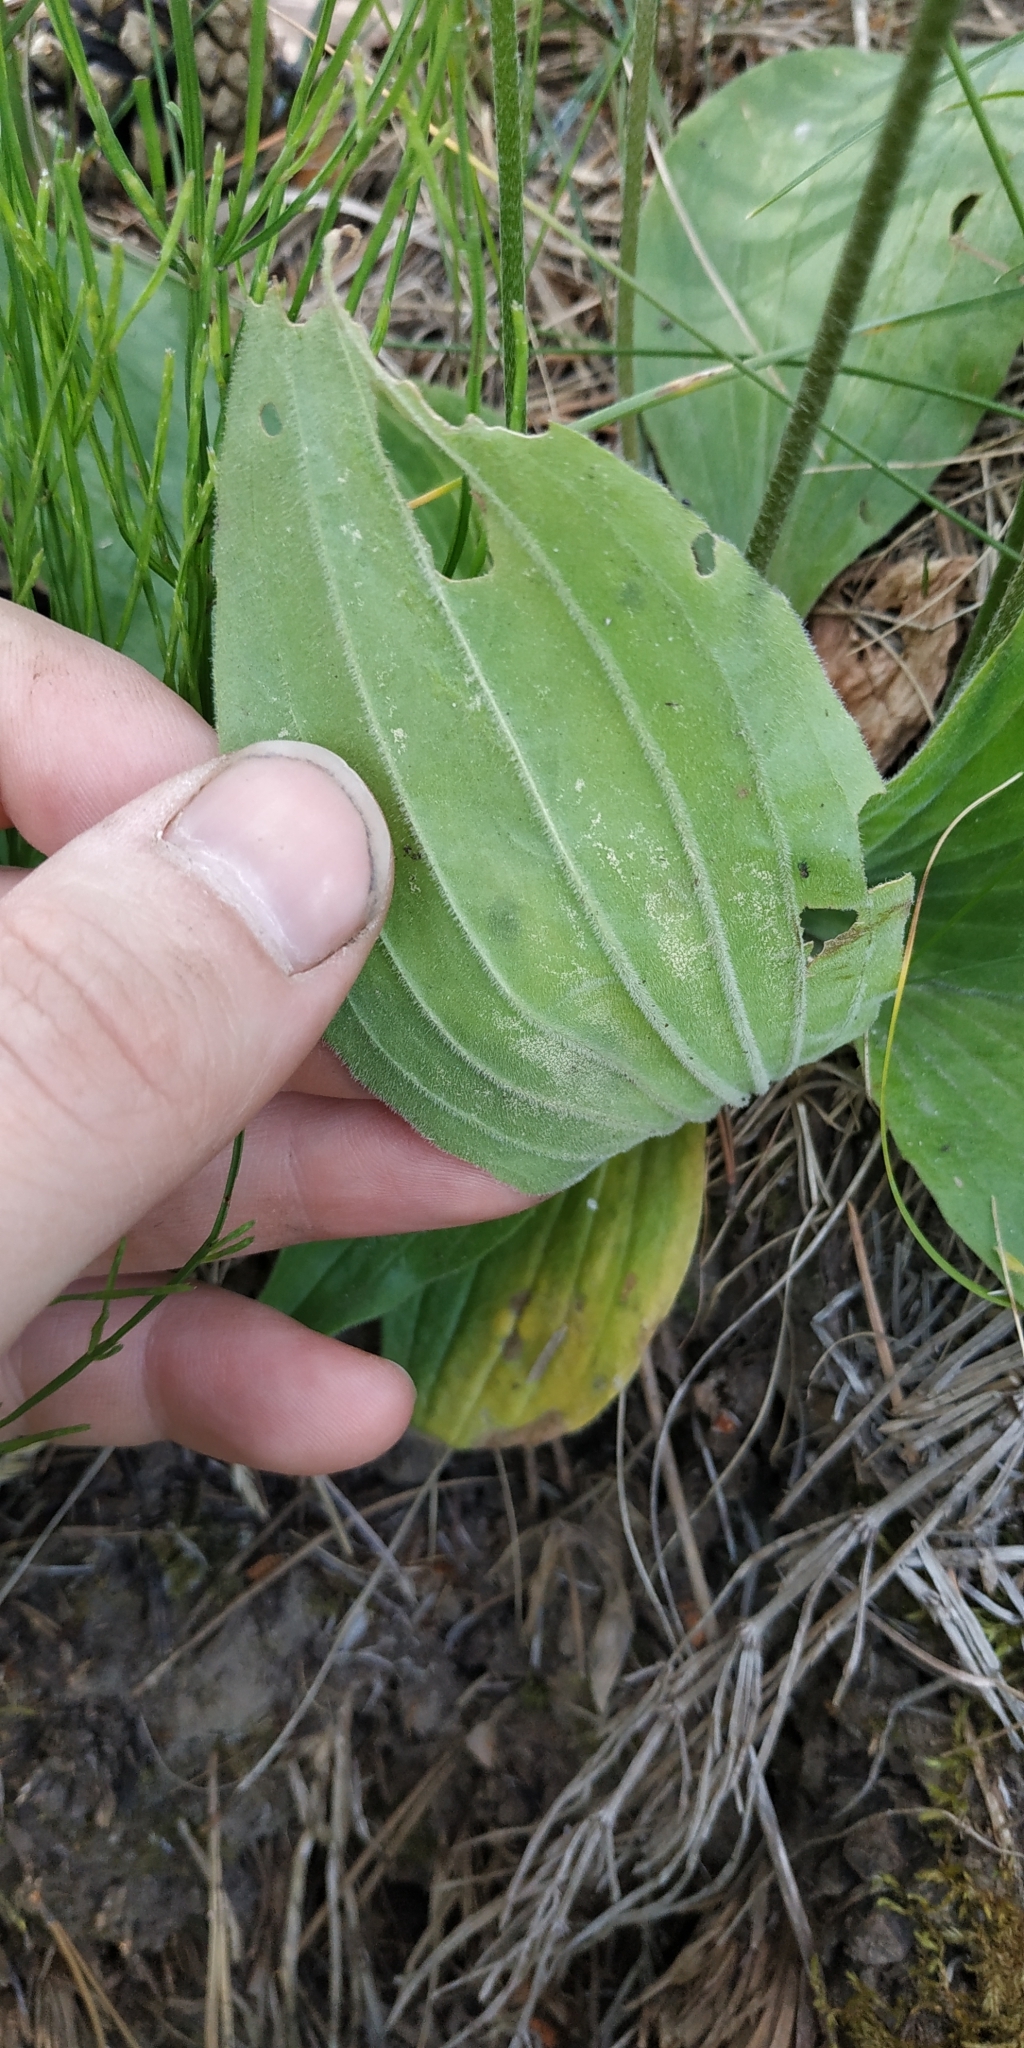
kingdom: Plantae
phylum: Tracheophyta
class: Magnoliopsida
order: Lamiales
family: Plantaginaceae
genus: Plantago
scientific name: Plantago media
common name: Hoary plantain
